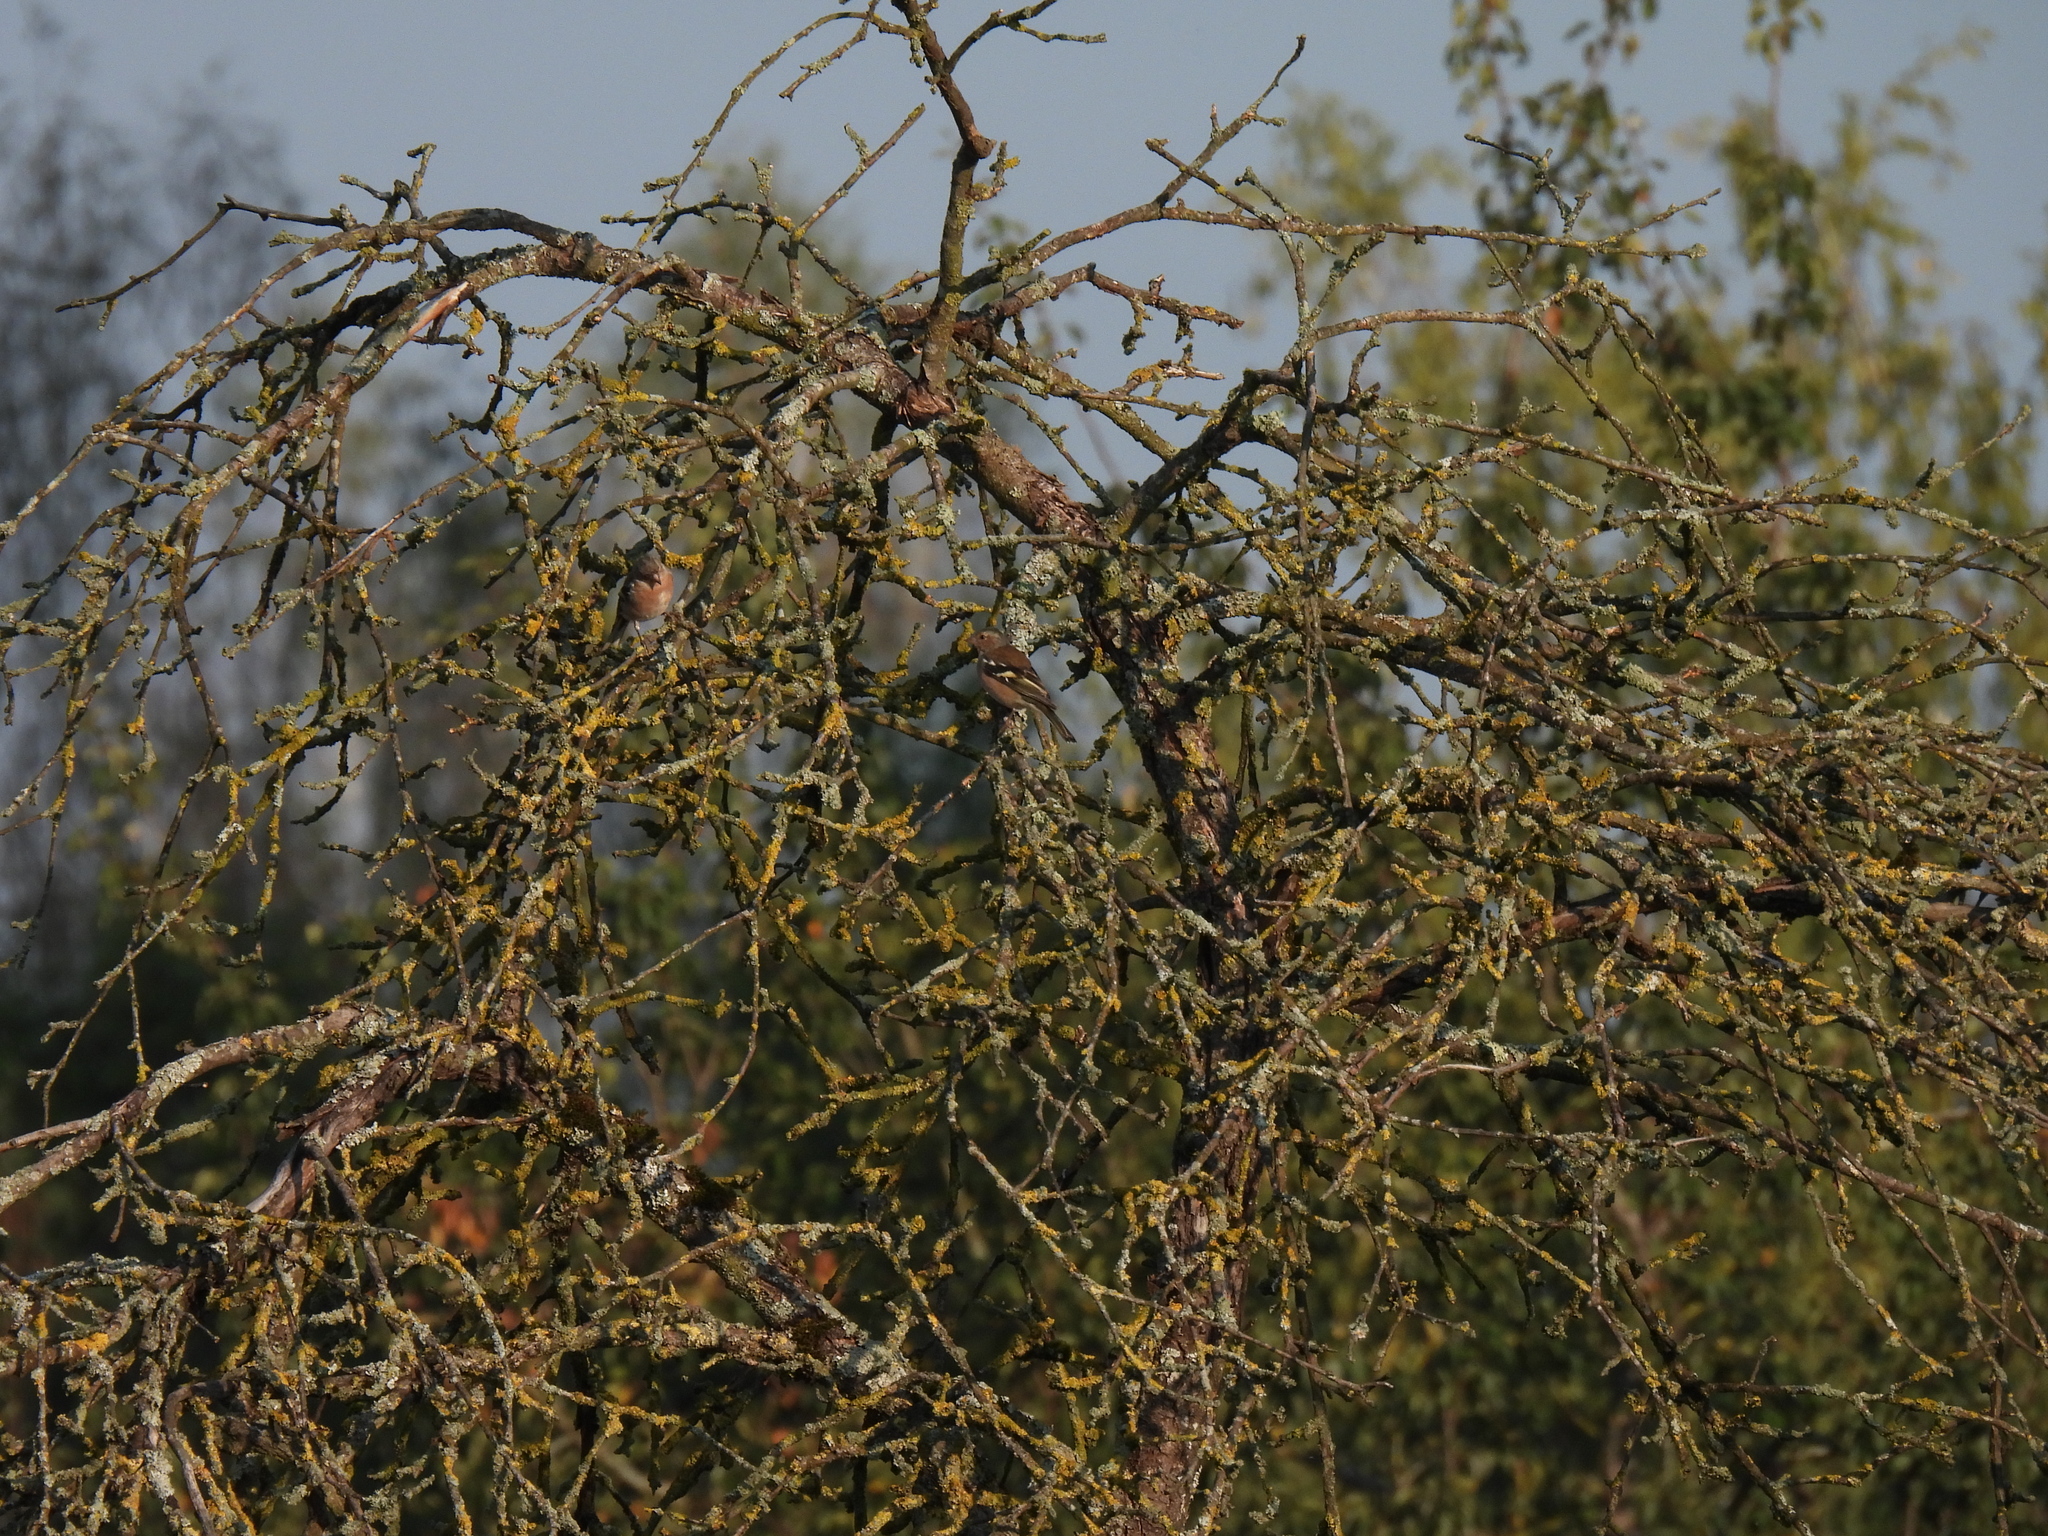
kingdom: Animalia
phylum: Chordata
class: Aves
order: Passeriformes
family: Fringillidae
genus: Fringilla
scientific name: Fringilla coelebs
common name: Common chaffinch
